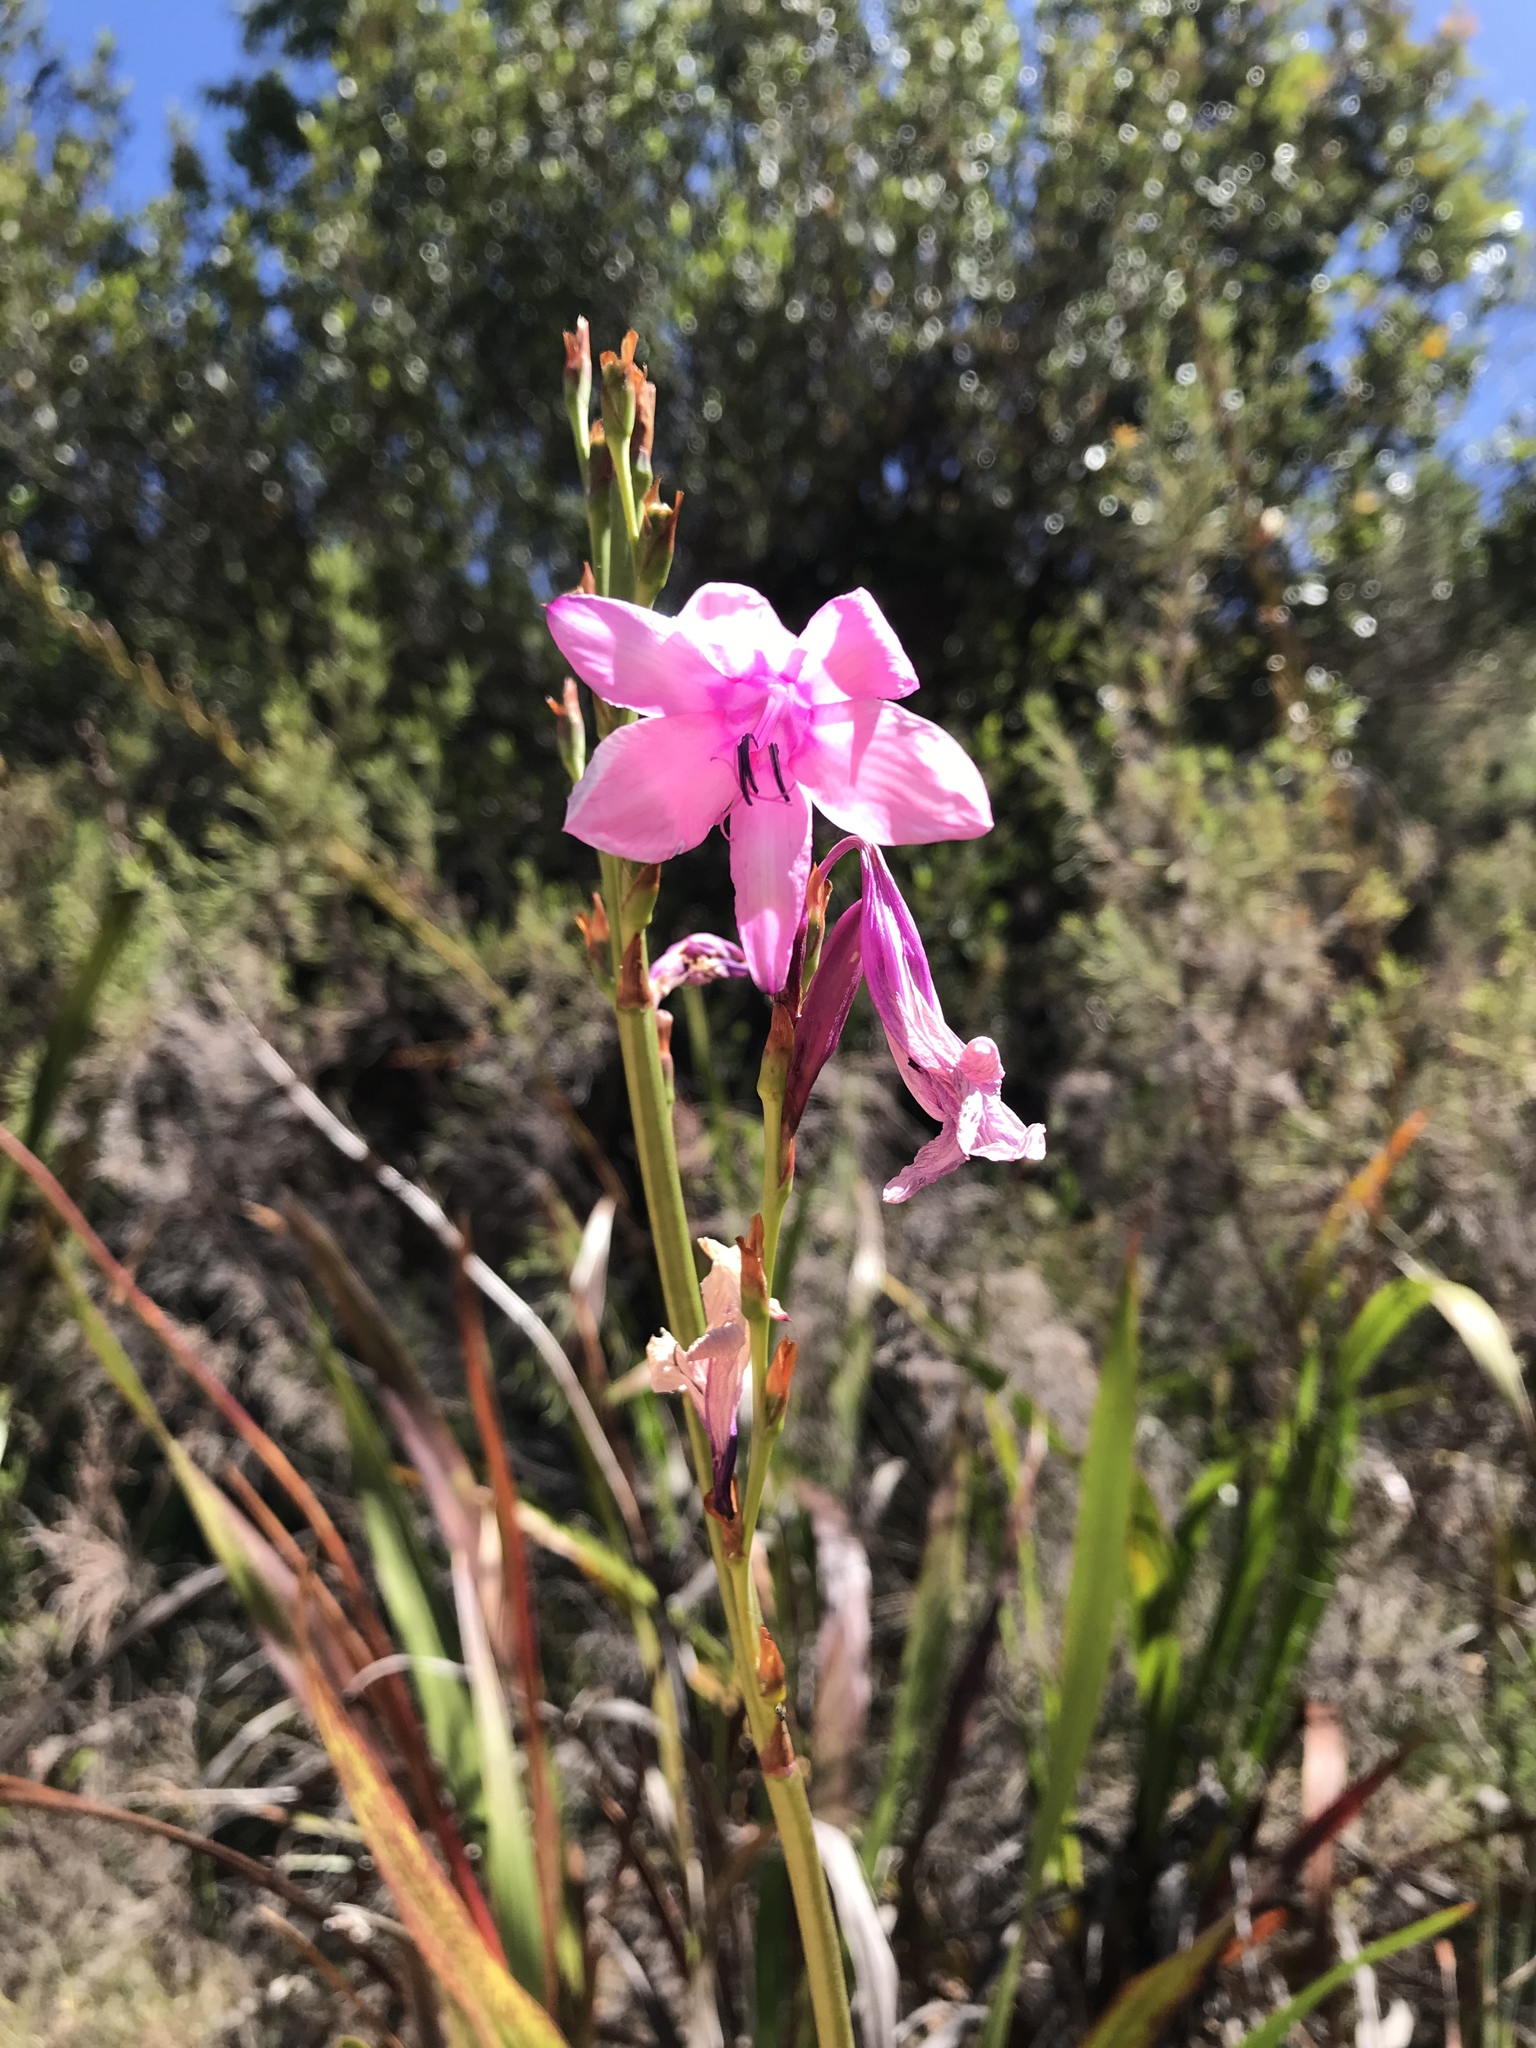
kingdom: Plantae
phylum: Tracheophyta
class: Liliopsida
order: Asparagales
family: Iridaceae
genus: Watsonia
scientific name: Watsonia borbonica
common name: Bugle-lily
